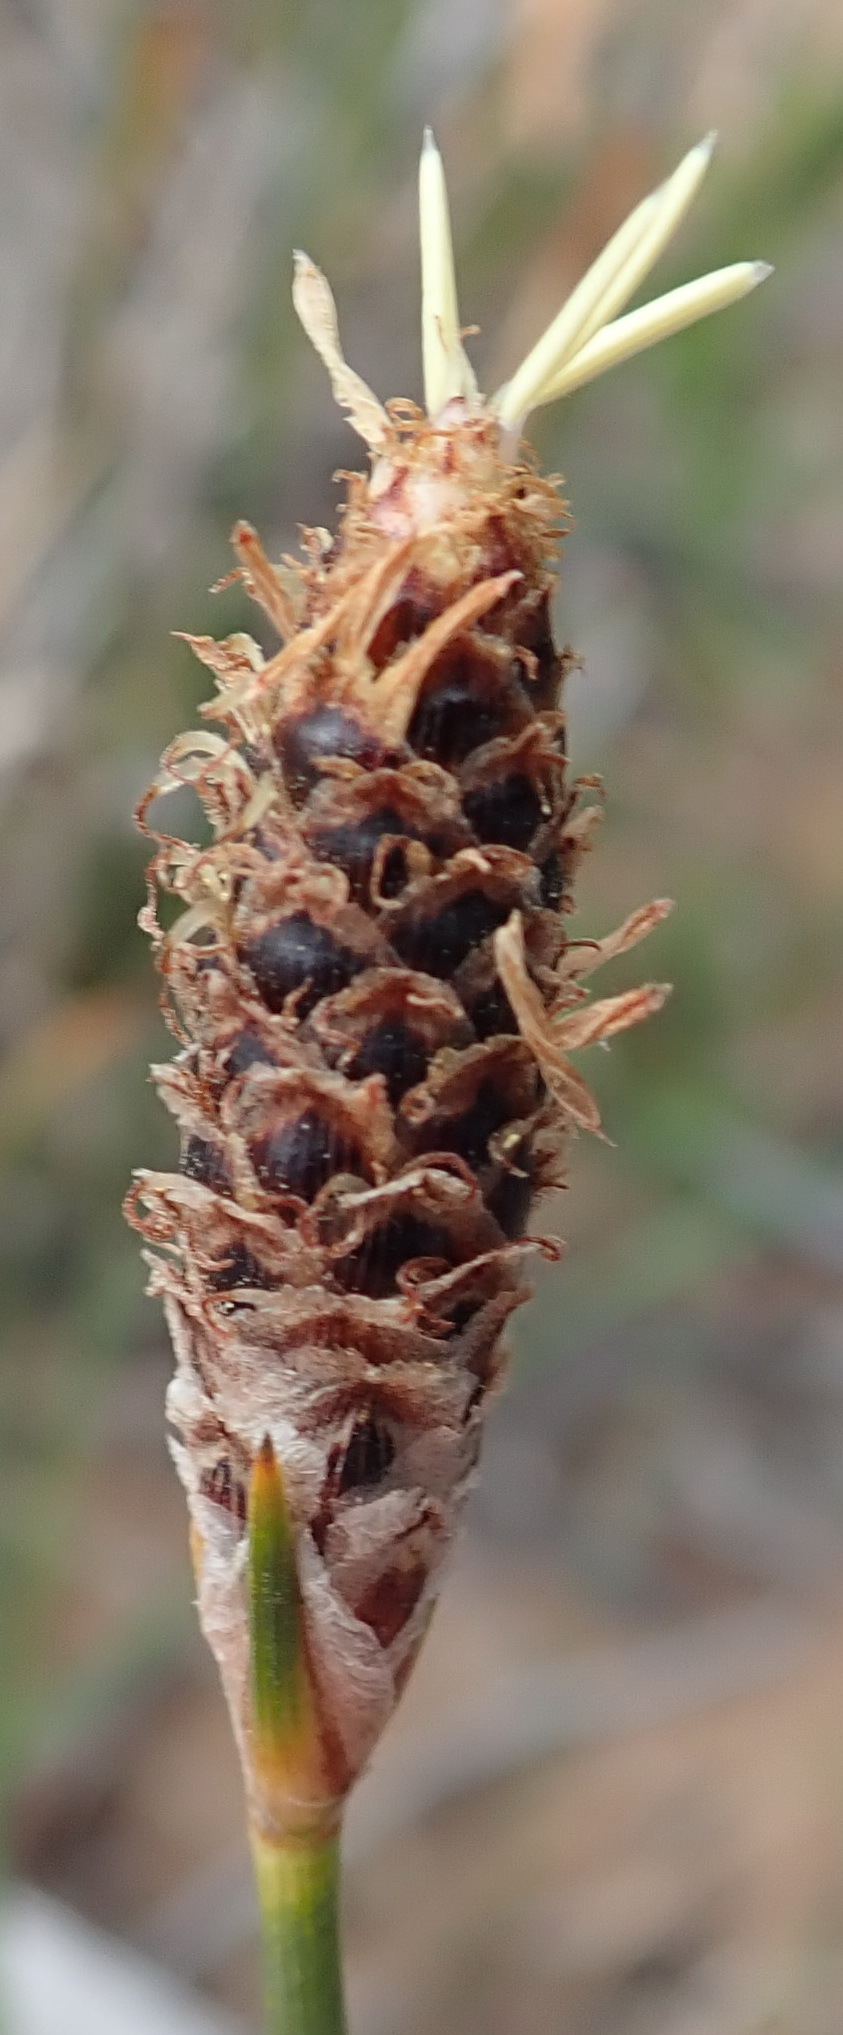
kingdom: Plantae
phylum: Tracheophyta
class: Liliopsida
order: Poales
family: Cyperaceae
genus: Hellmuthia
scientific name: Hellmuthia membranacea
